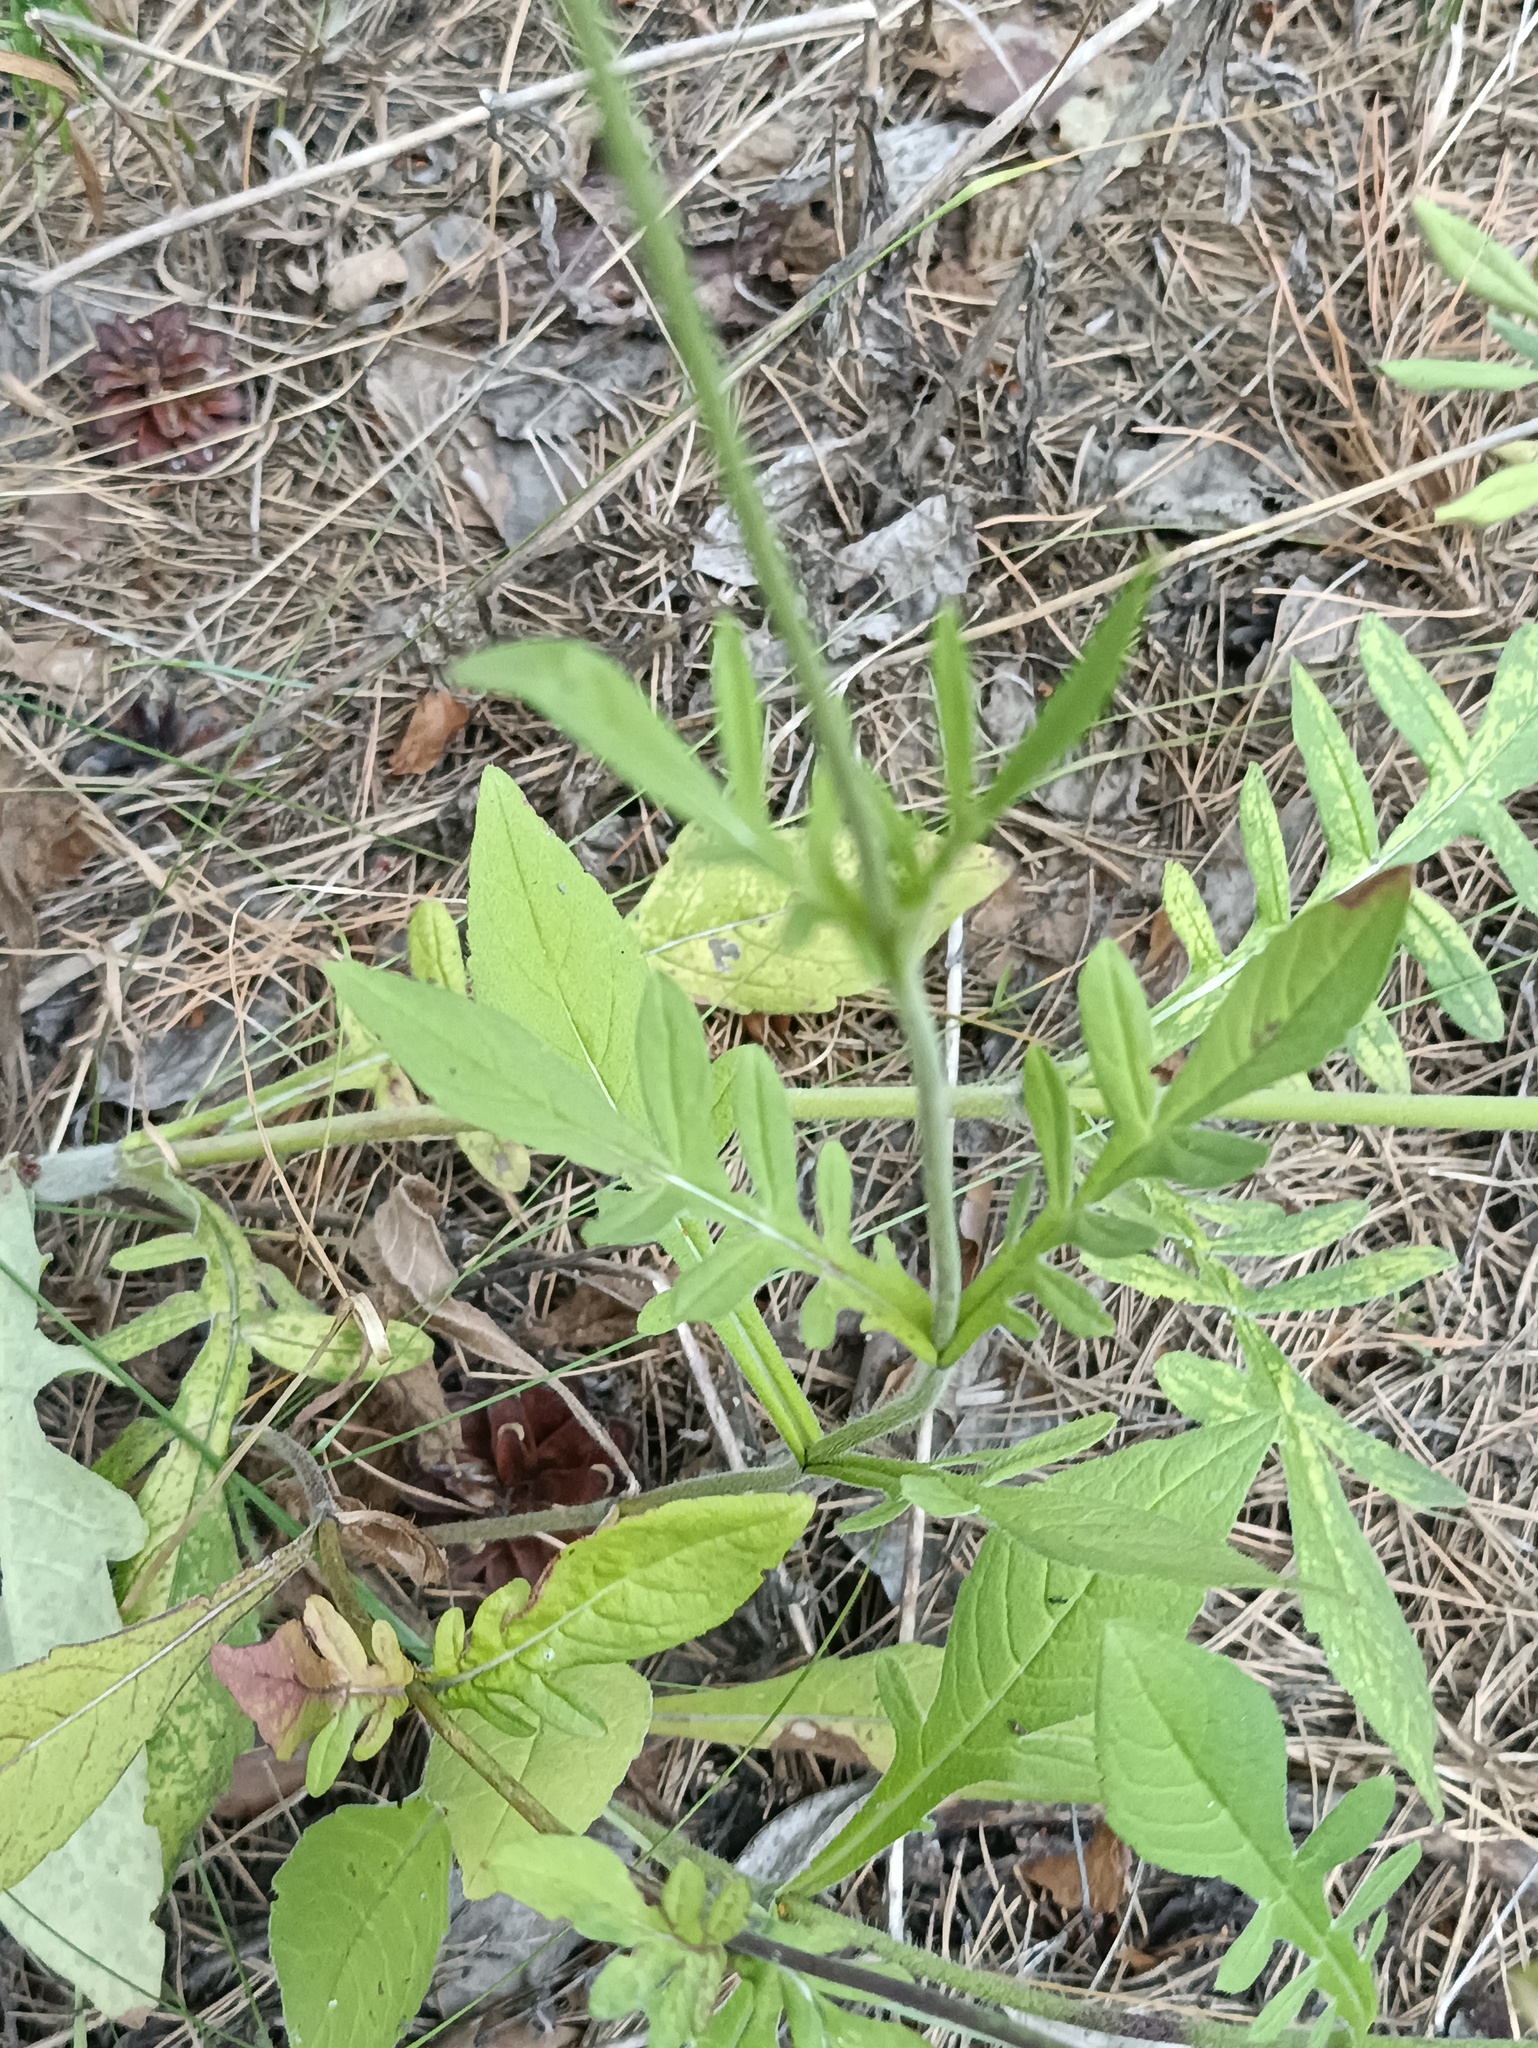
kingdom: Plantae
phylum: Tracheophyta
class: Magnoliopsida
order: Dipsacales
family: Caprifoliaceae
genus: Knautia
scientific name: Knautia arvensis
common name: Field scabiosa
